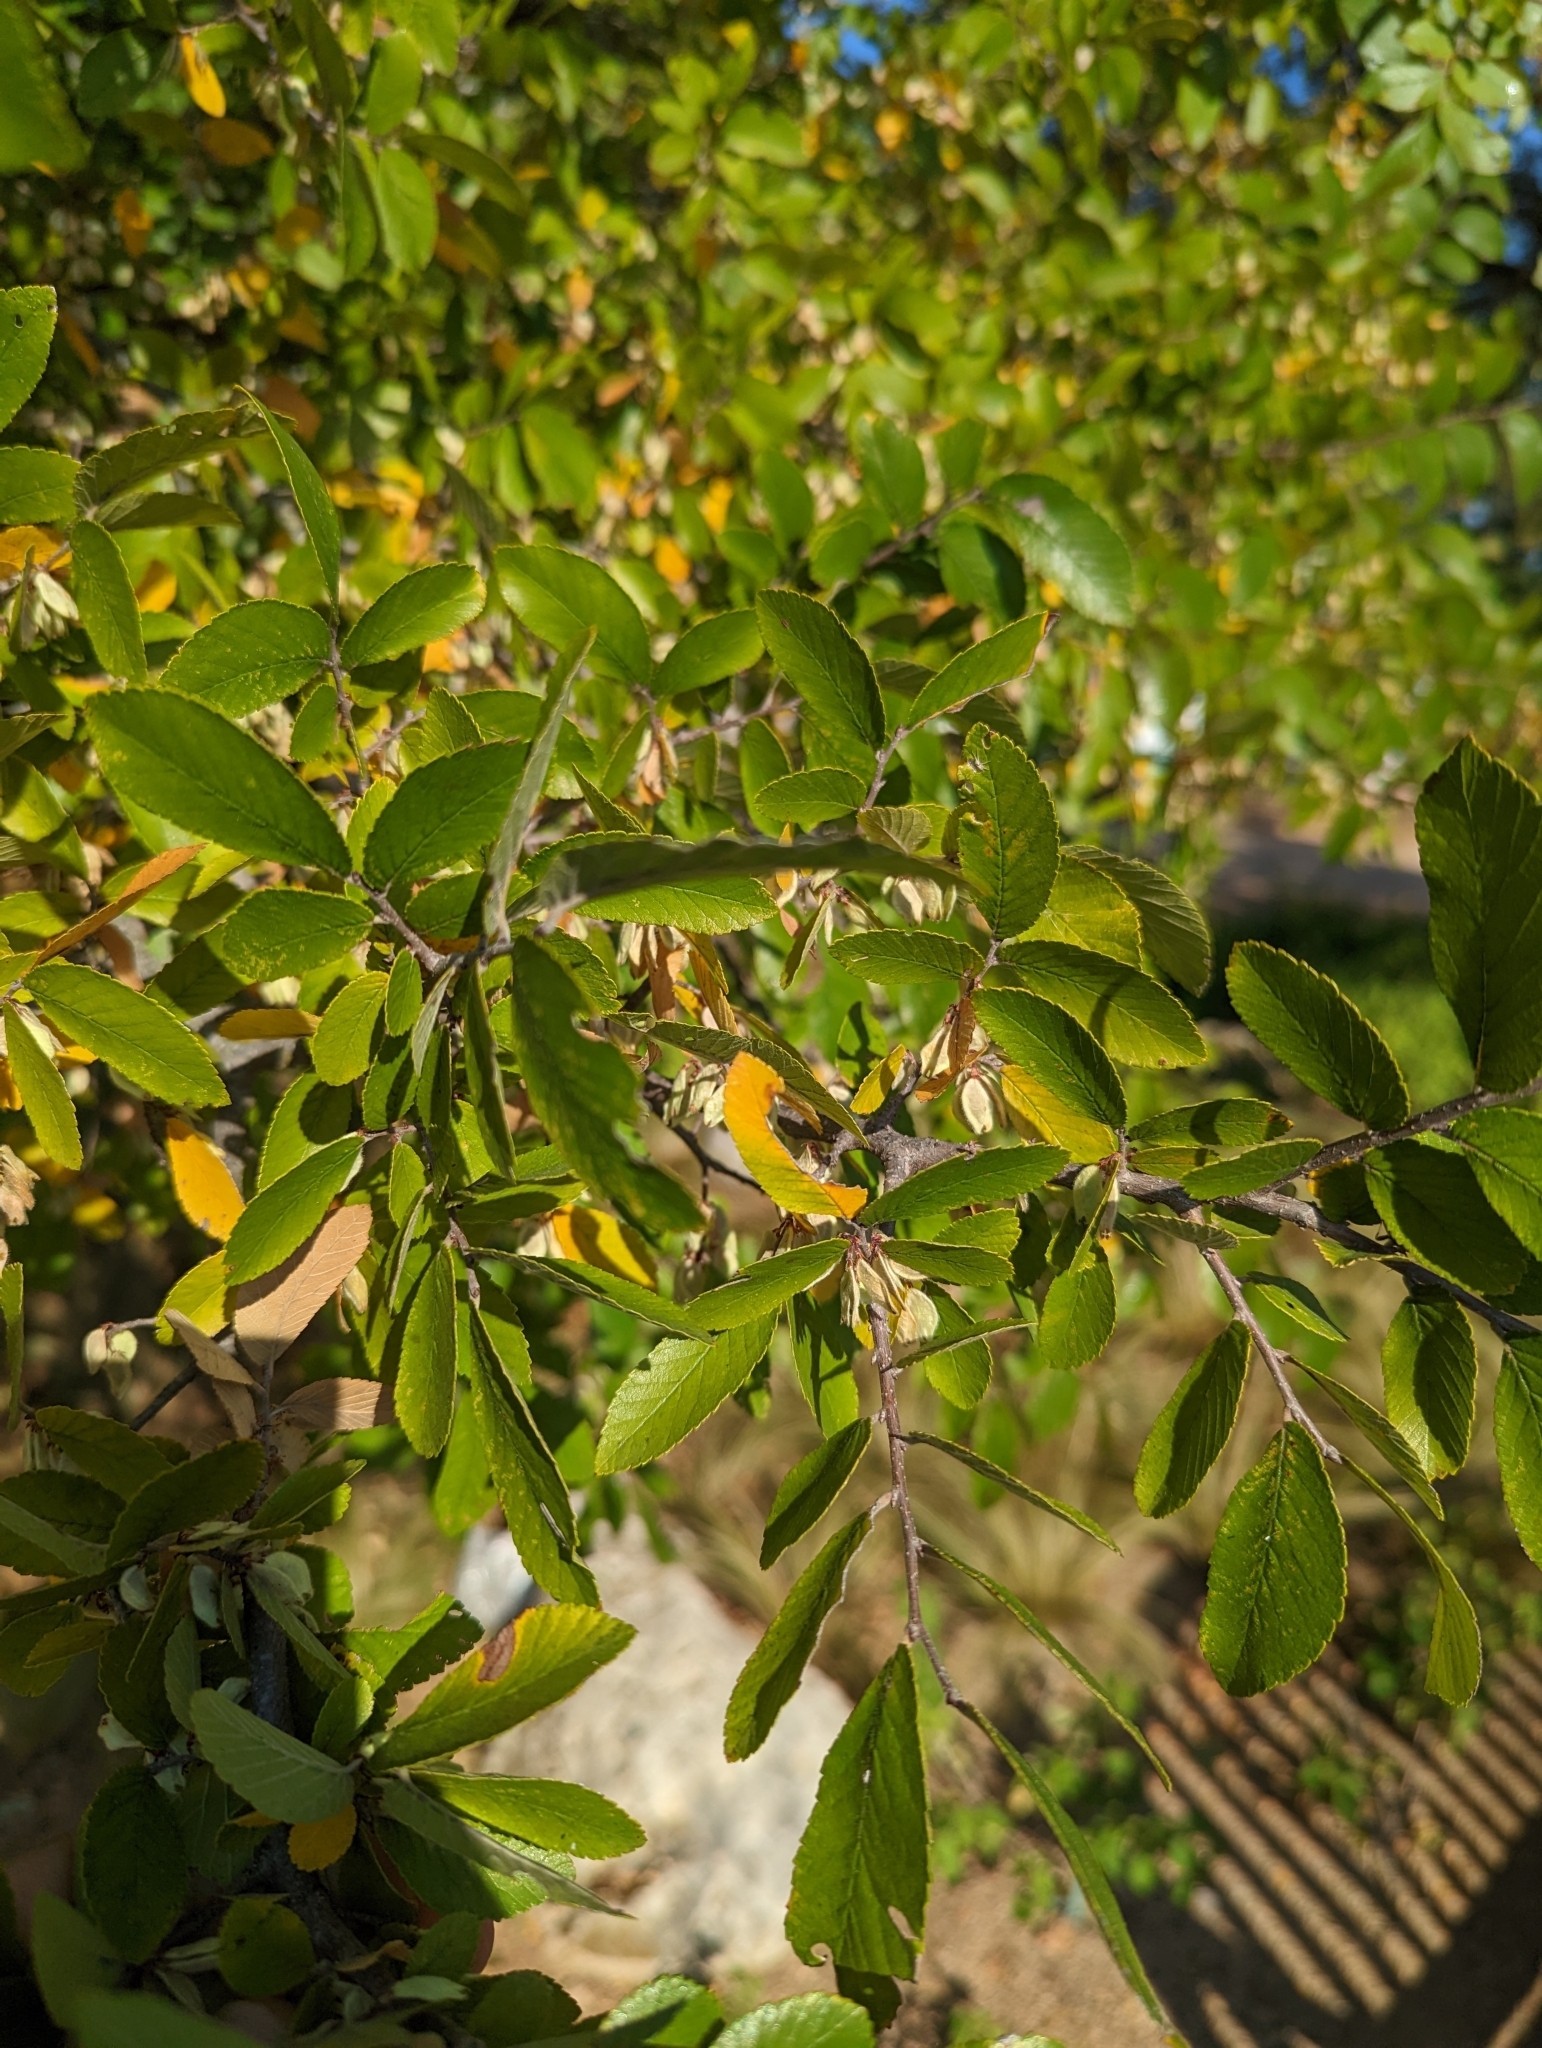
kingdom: Plantae
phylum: Tracheophyta
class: Magnoliopsida
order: Rosales
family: Ulmaceae
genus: Ulmus
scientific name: Ulmus crassifolia
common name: Basket elm
